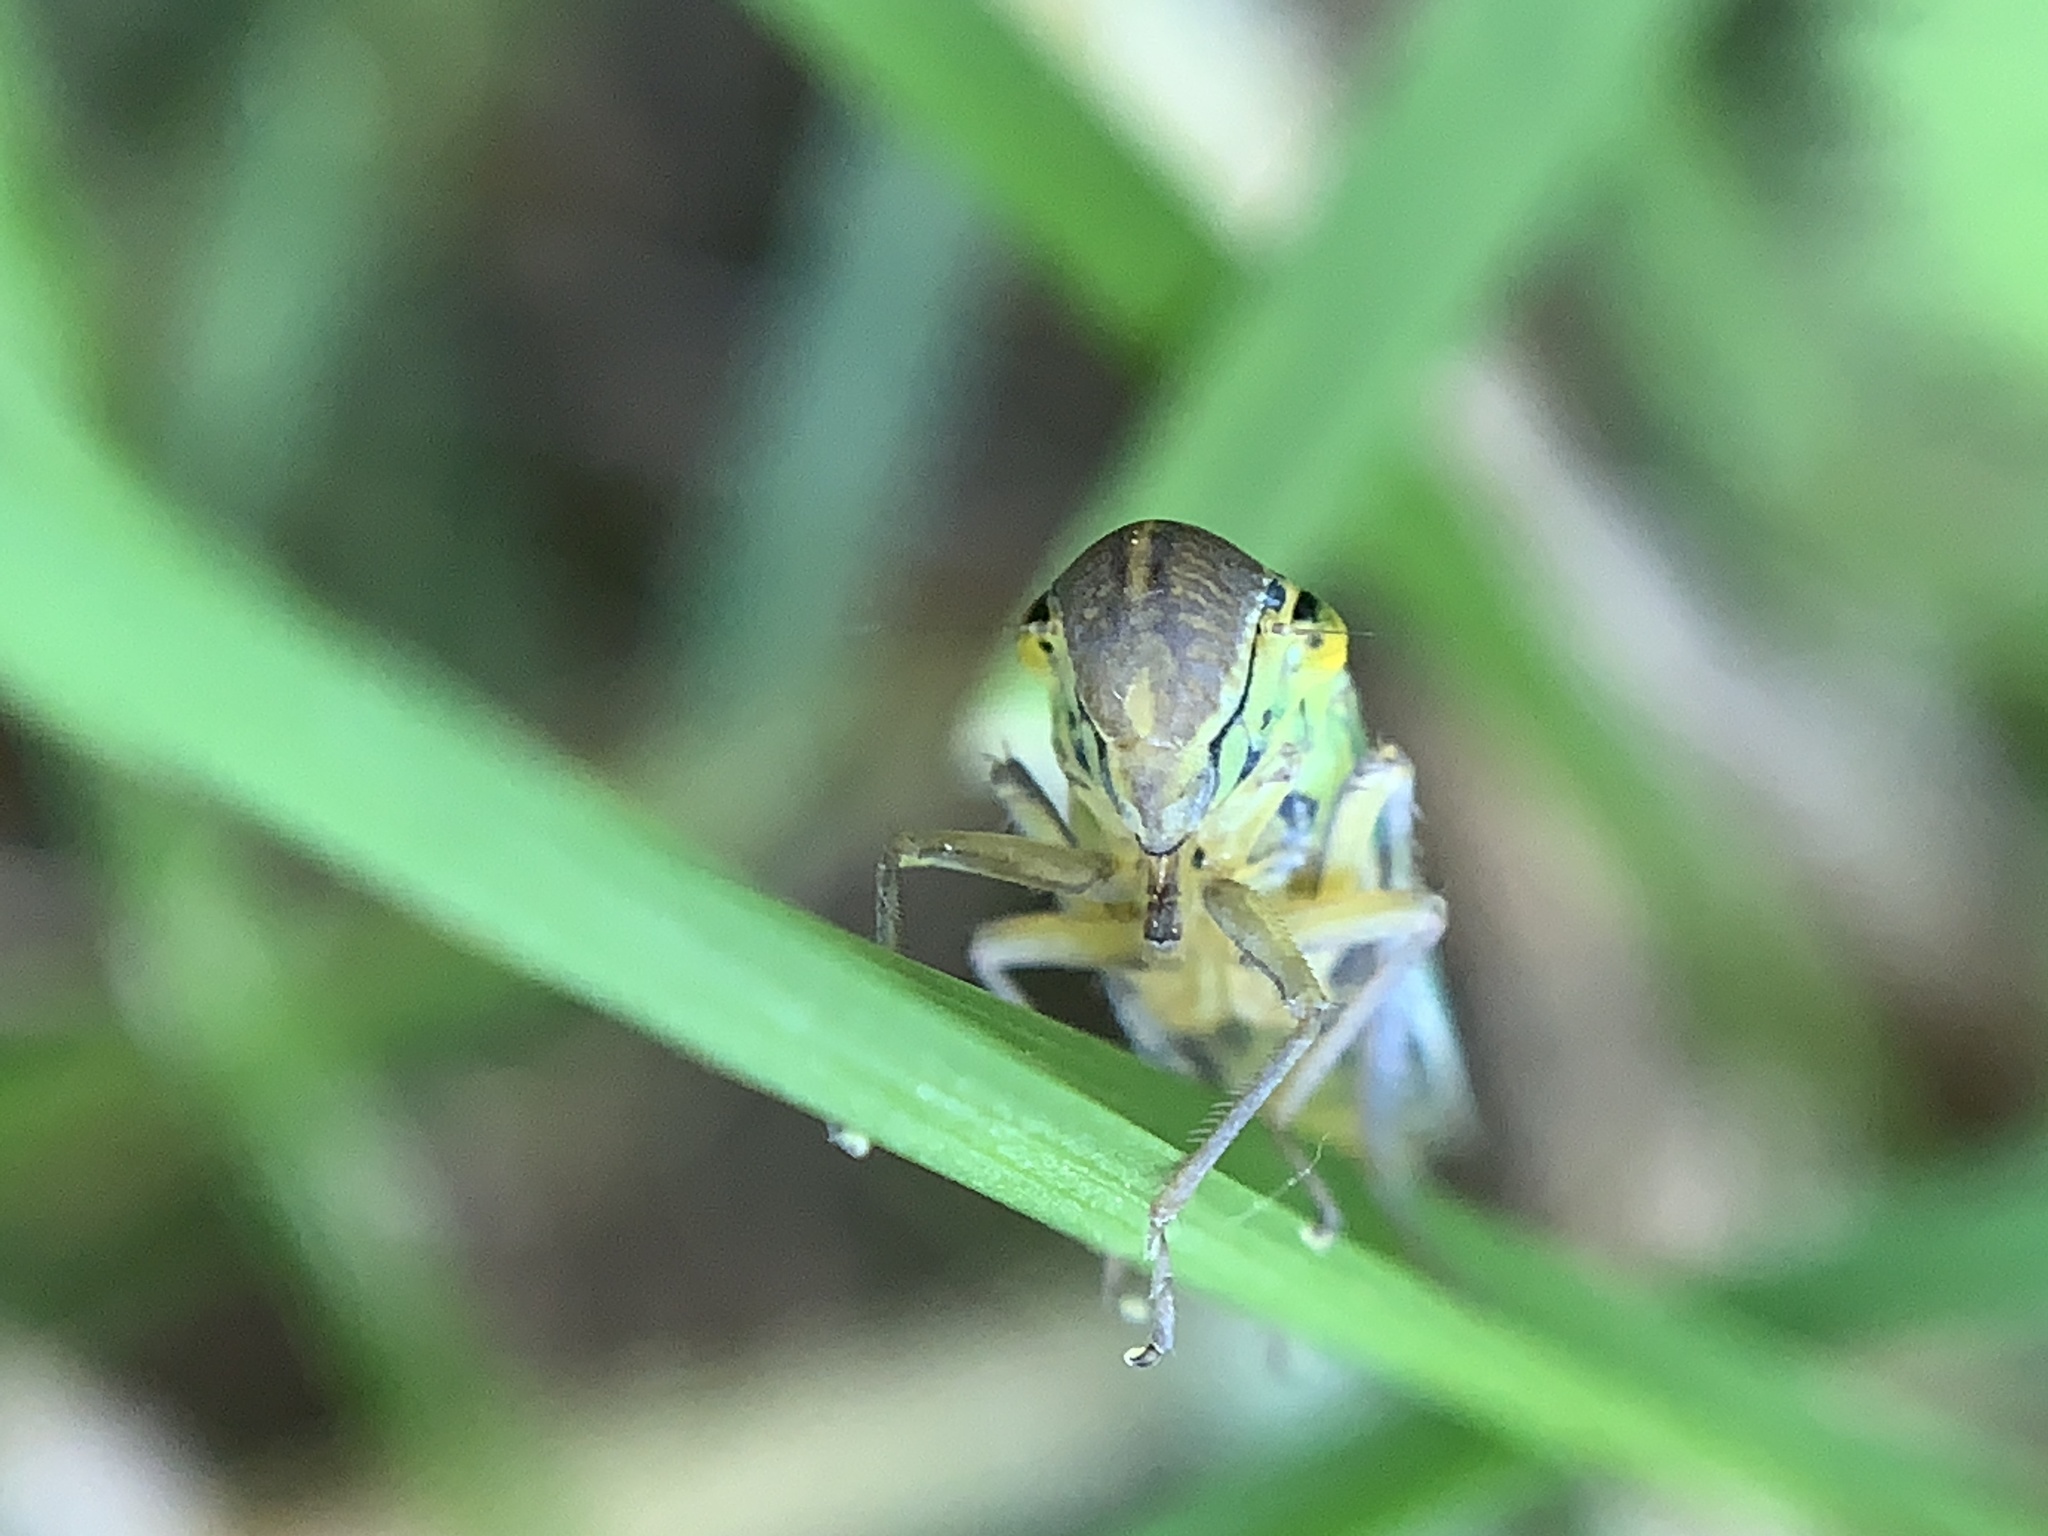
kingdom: Animalia
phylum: Arthropoda
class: Insecta
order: Hemiptera
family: Cicadellidae
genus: Cicadella
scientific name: Cicadella viridis
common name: Leafhopper
